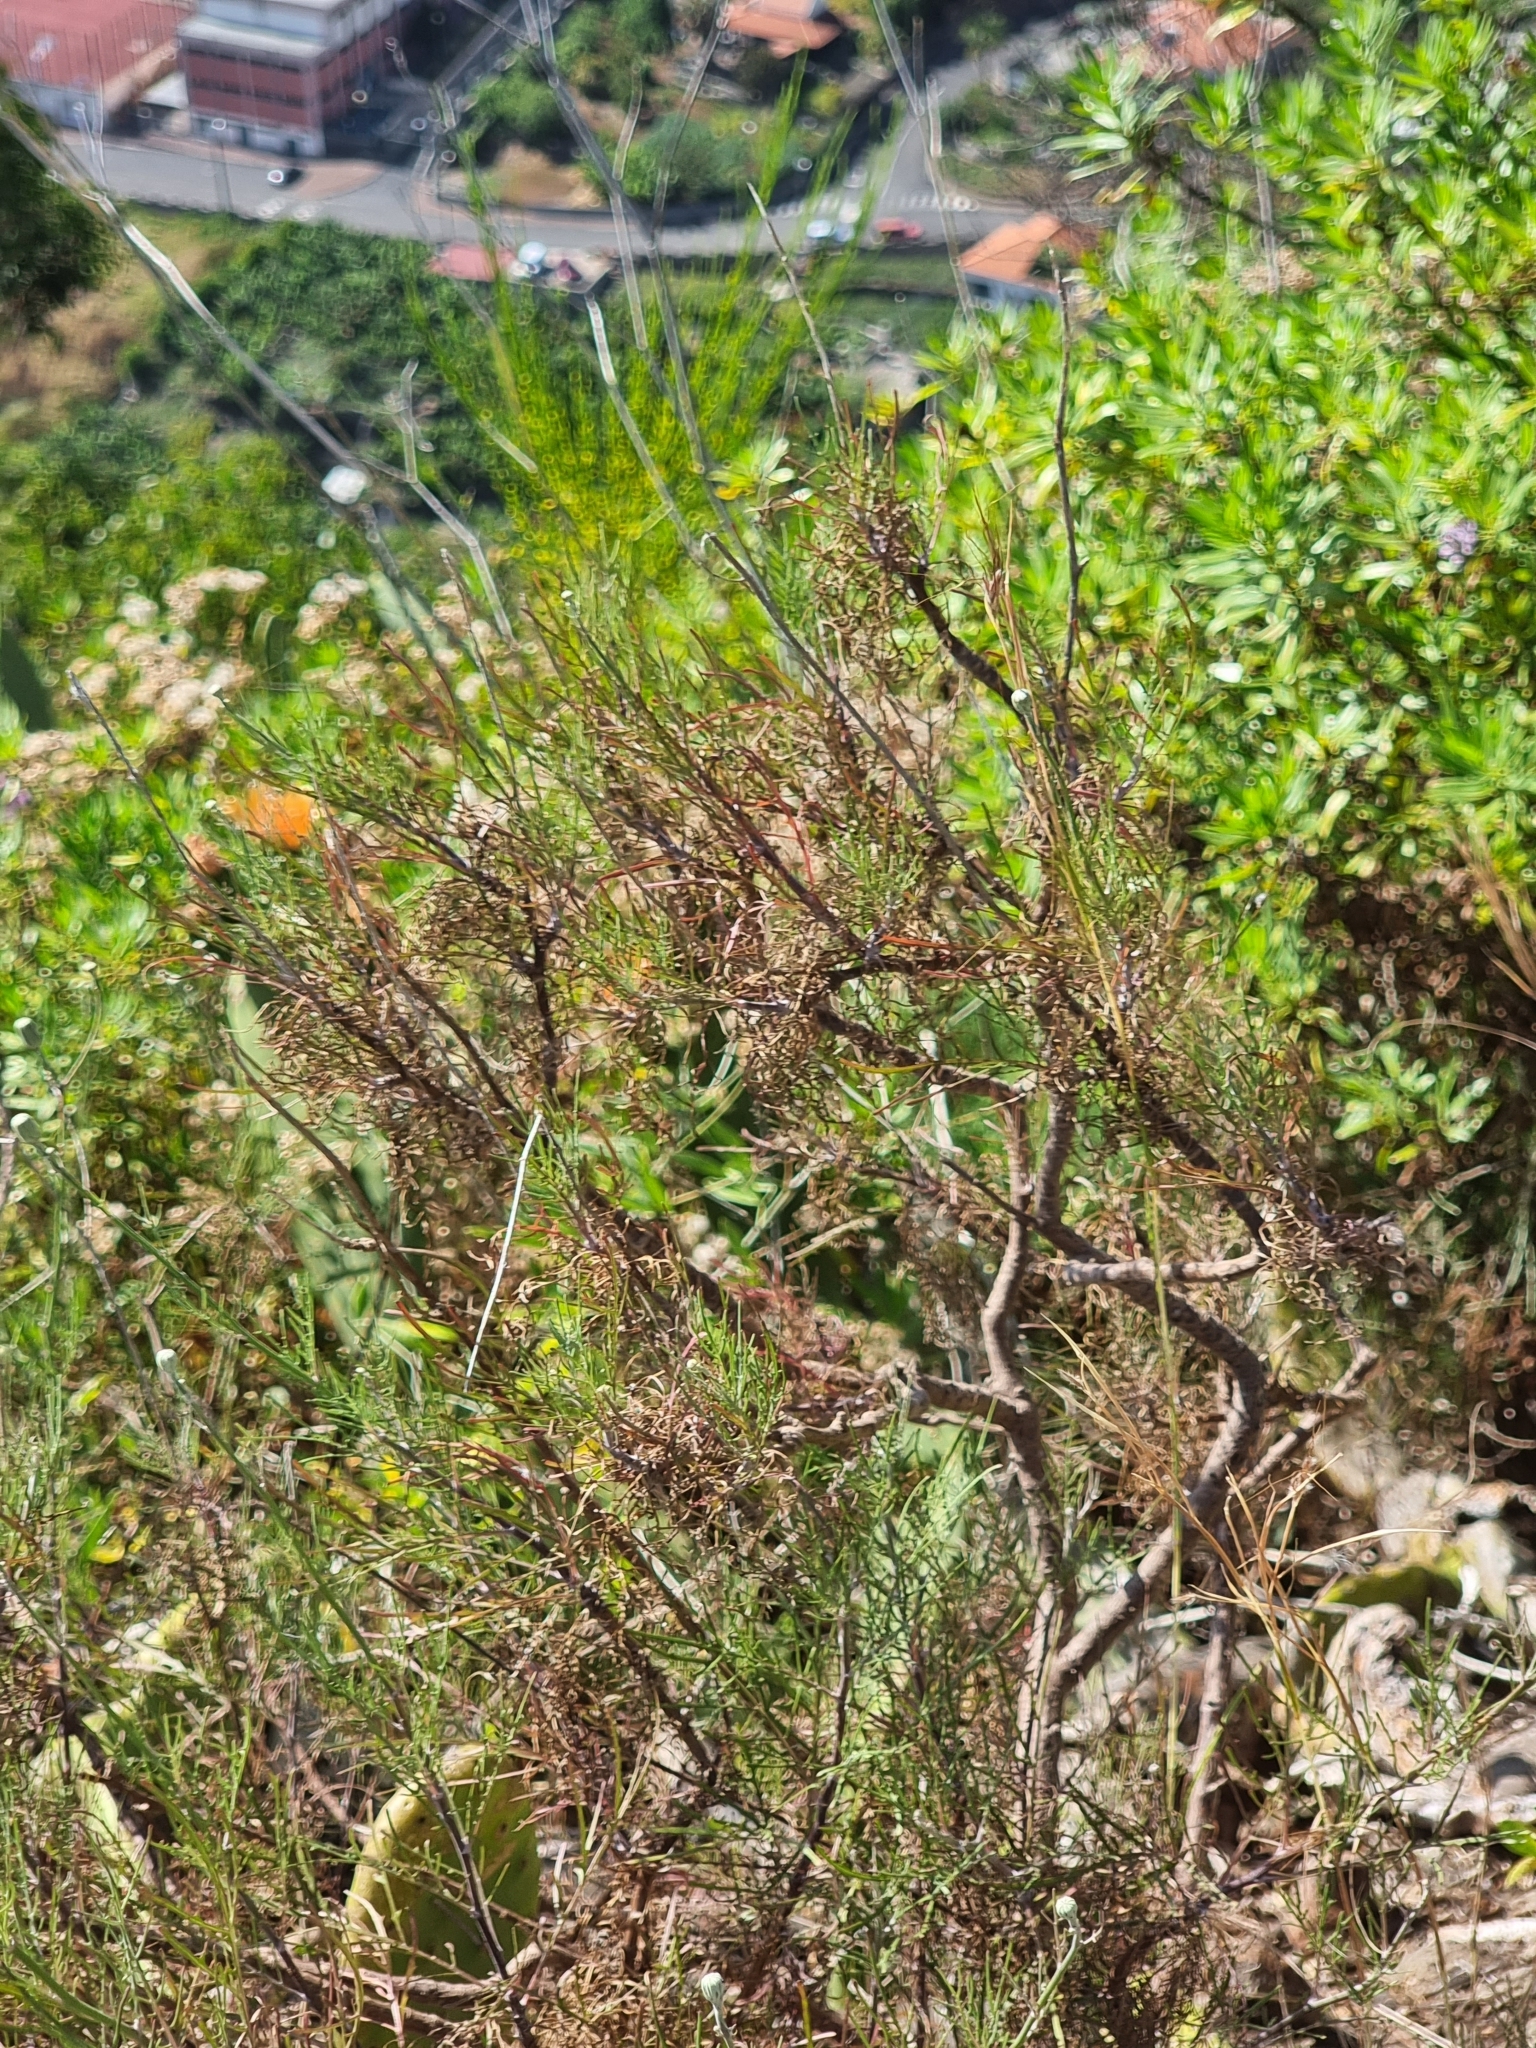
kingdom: Plantae
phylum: Tracheophyta
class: Magnoliopsida
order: Asterales
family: Asteraceae
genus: Tolpis
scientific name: Tolpis succulenta
